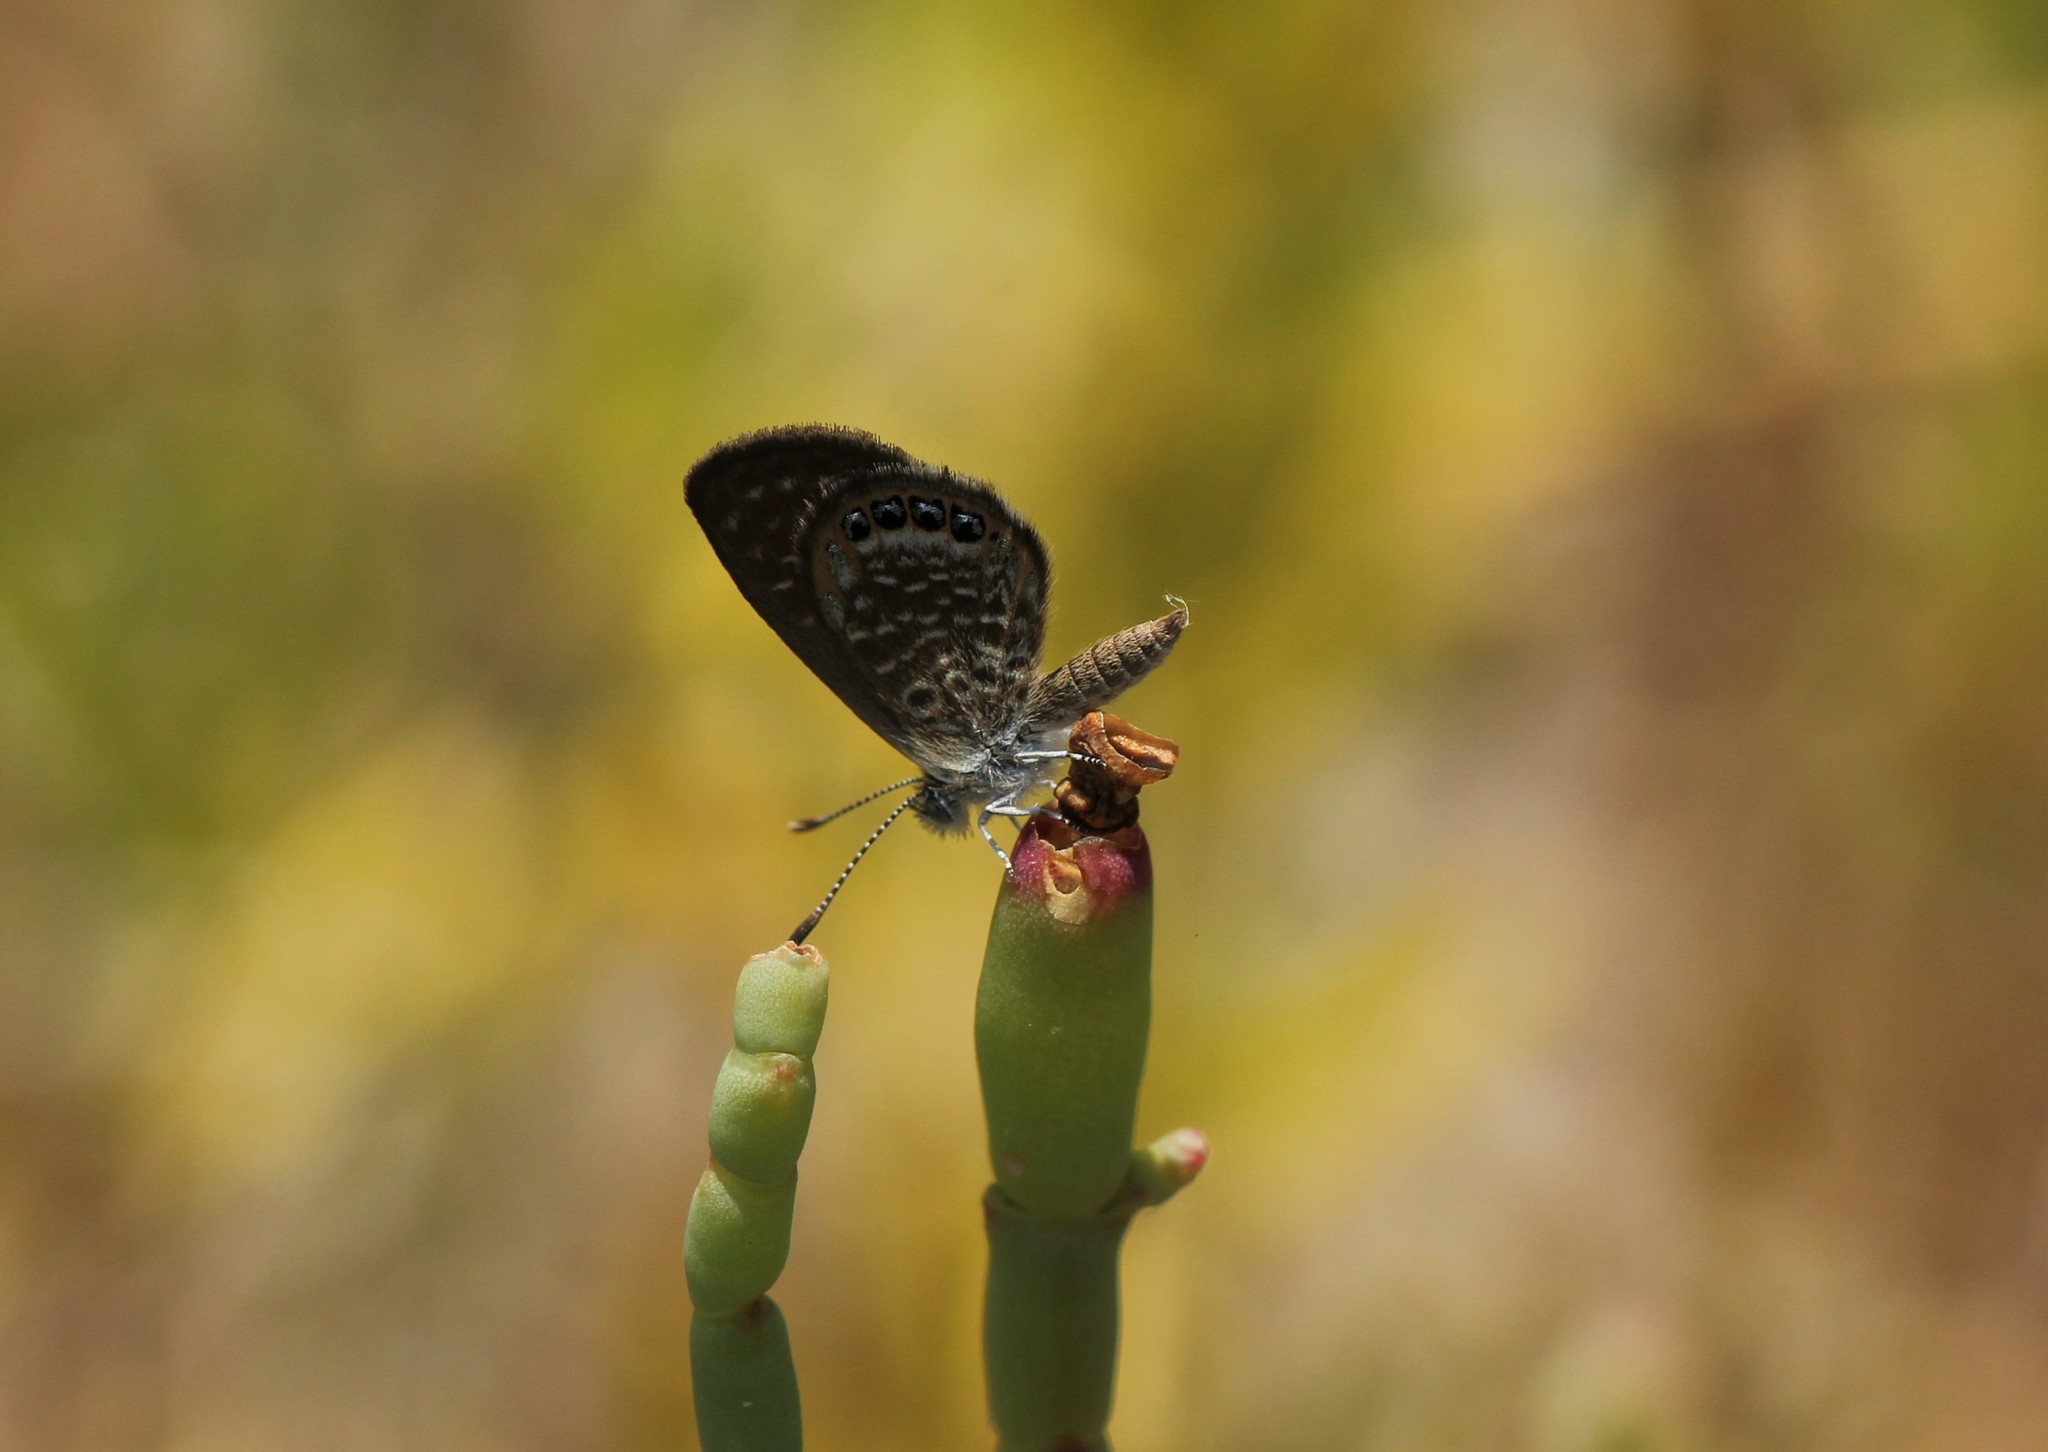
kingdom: Animalia
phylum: Arthropoda
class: Insecta
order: Lepidoptera
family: Lycaenidae
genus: Brephidium
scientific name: Brephidium isophthalma
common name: Eastern pygmy-blue
